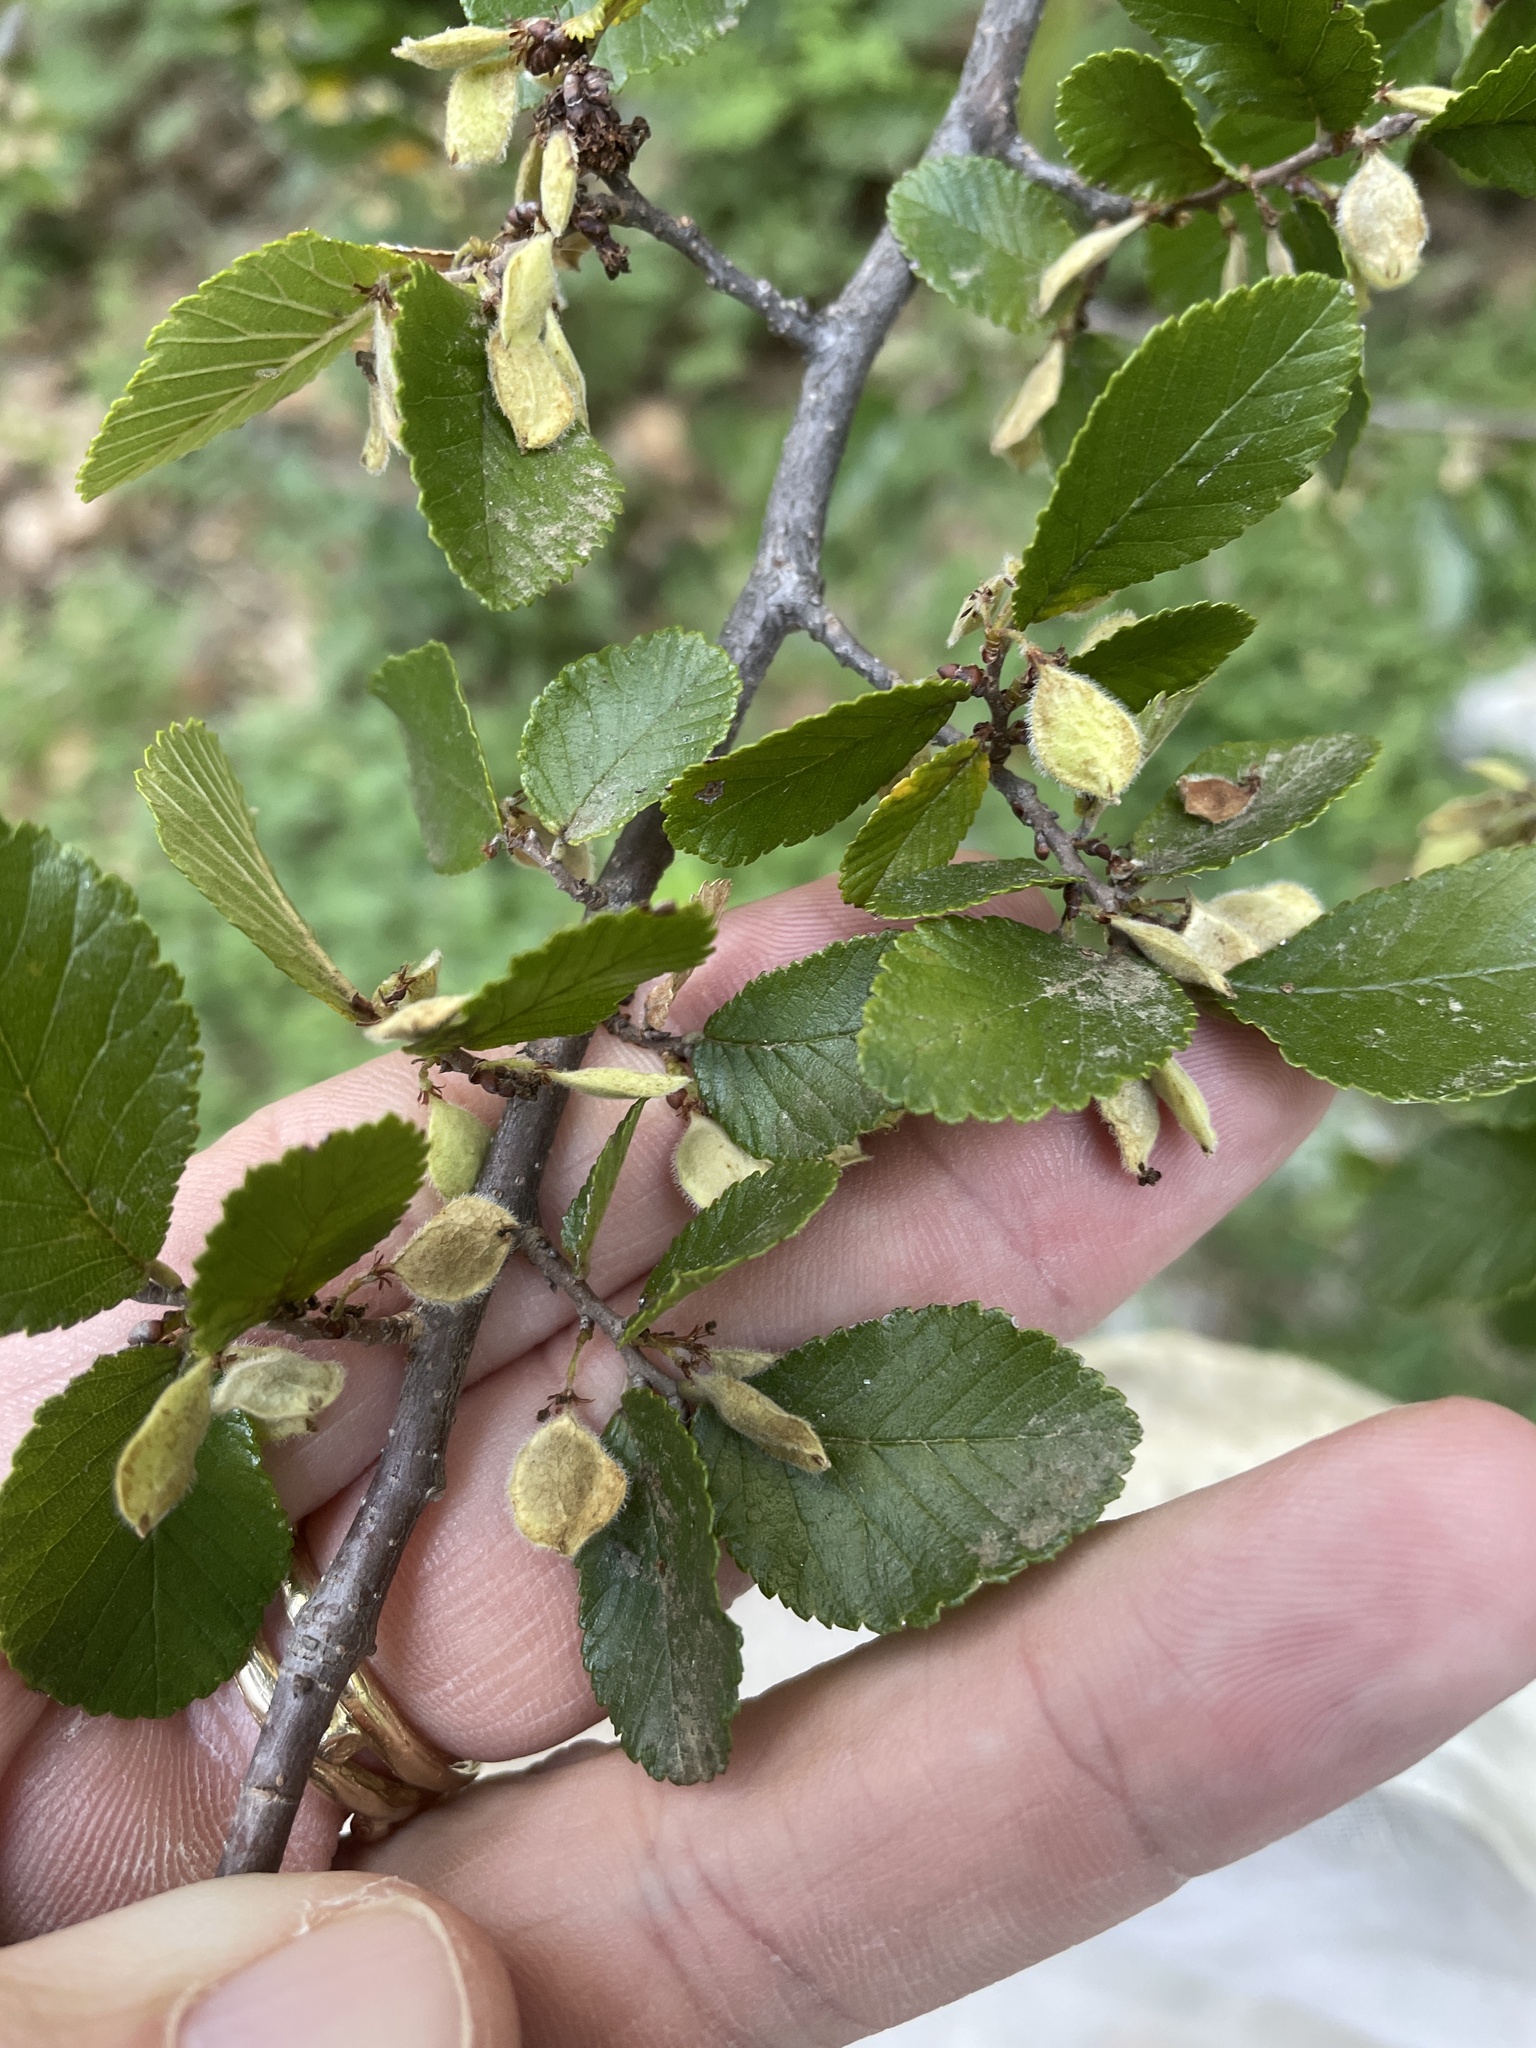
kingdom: Plantae
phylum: Tracheophyta
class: Magnoliopsida
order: Rosales
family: Ulmaceae
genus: Ulmus
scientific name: Ulmus crassifolia
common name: Basket elm
